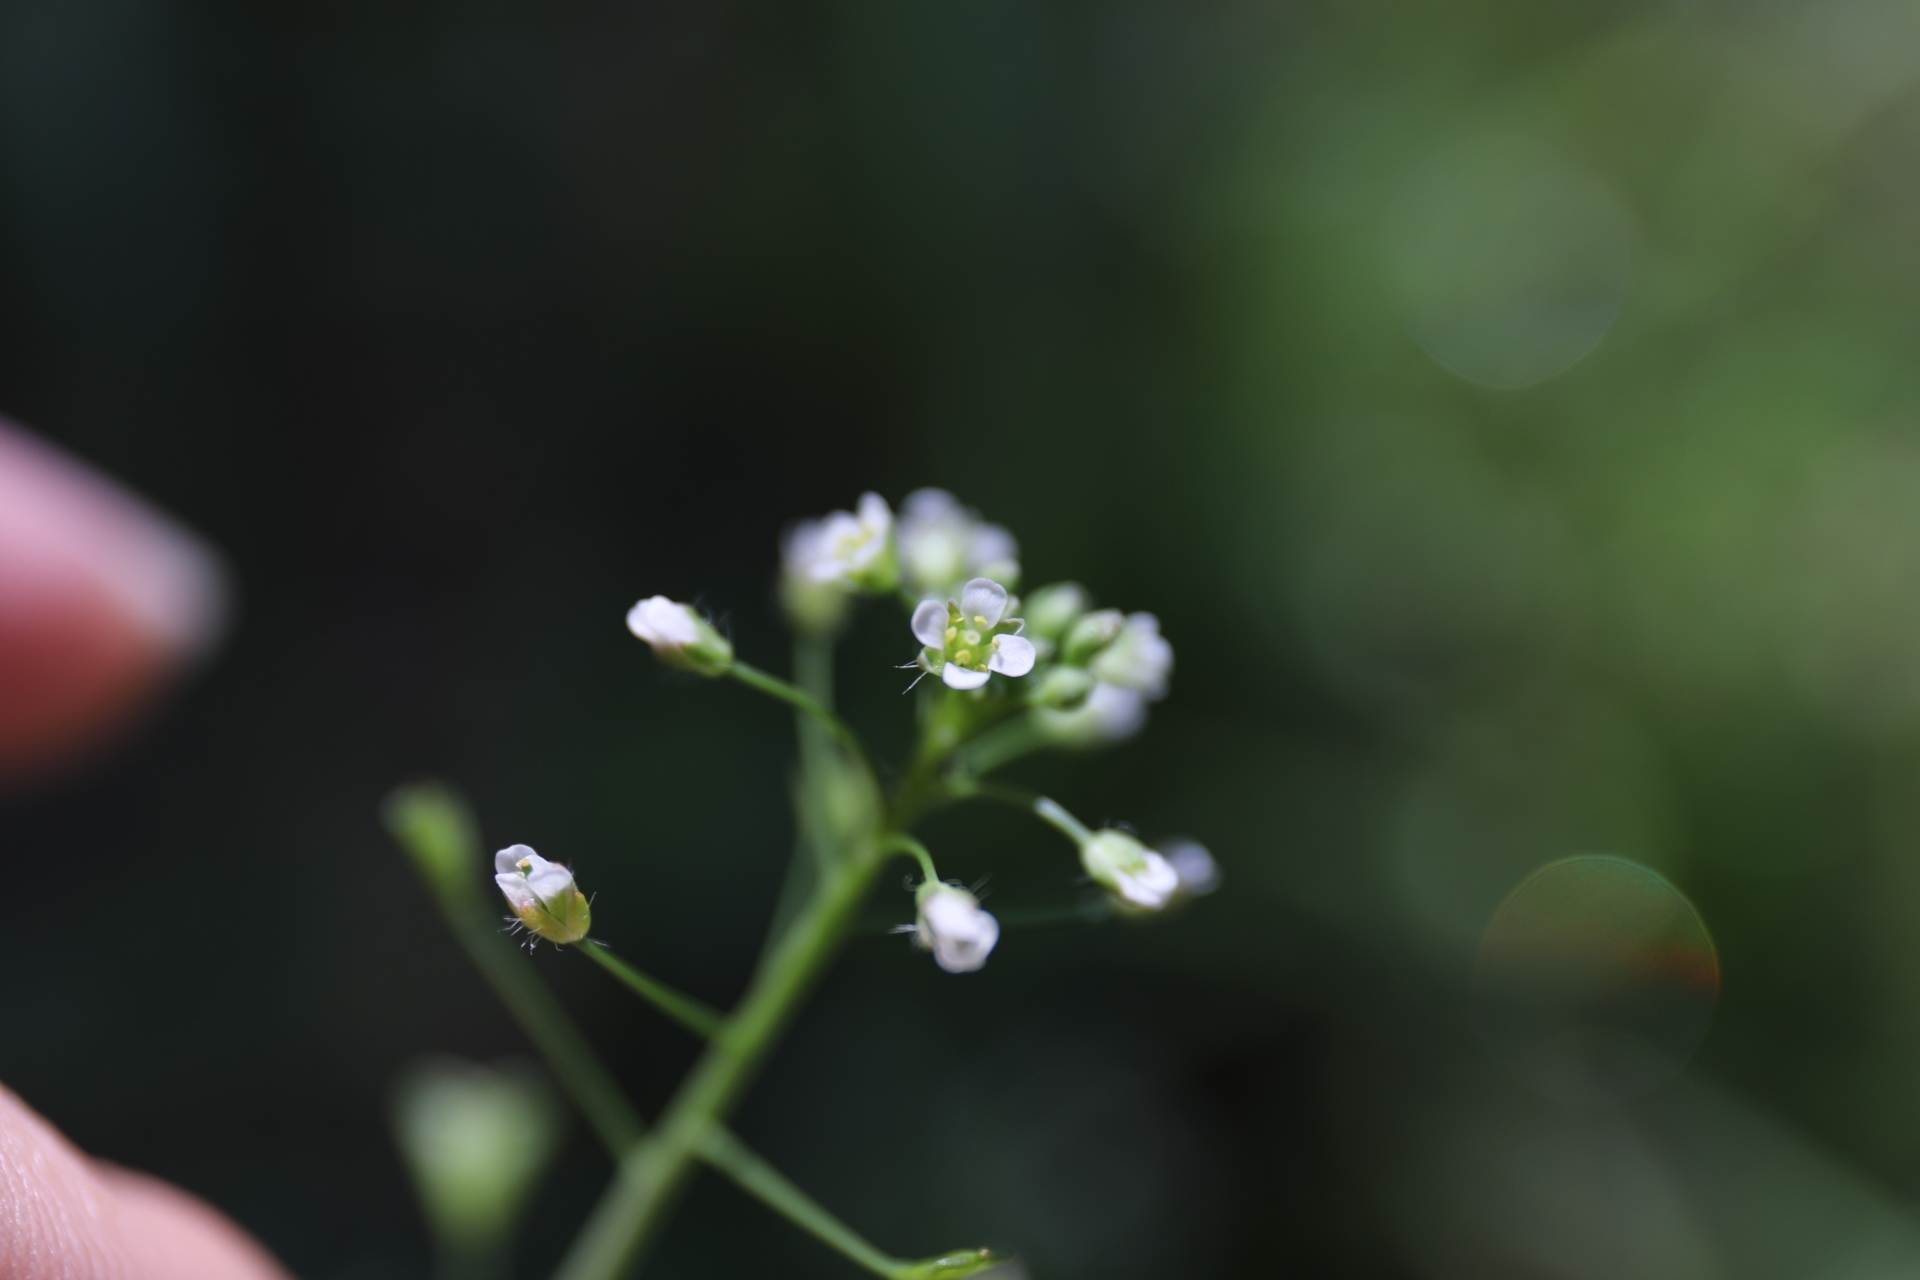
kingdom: Plantae
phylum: Tracheophyta
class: Magnoliopsida
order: Brassicales
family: Brassicaceae
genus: Capsella
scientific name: Capsella bursa-pastoris
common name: Shepherd's purse
